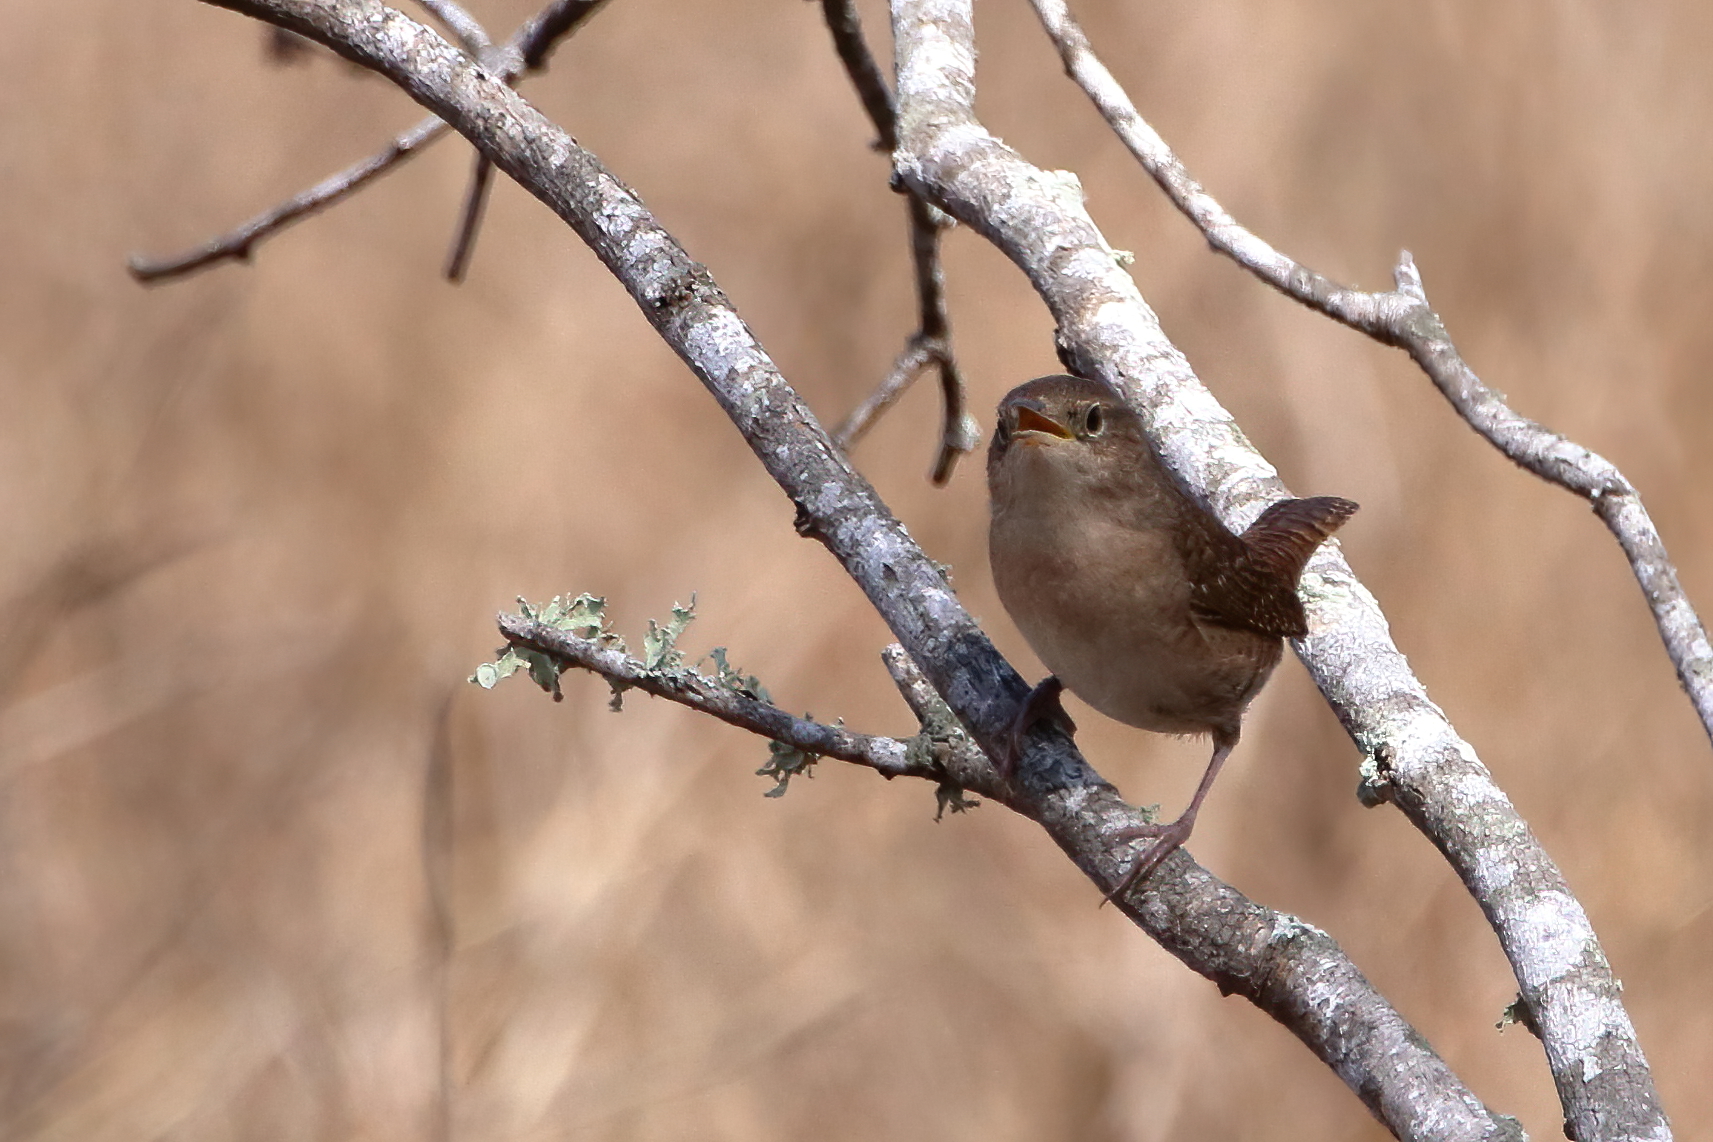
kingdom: Animalia
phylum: Chordata
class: Aves
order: Passeriformes
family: Troglodytidae
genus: Troglodytes
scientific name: Troglodytes aedon
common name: House wren
